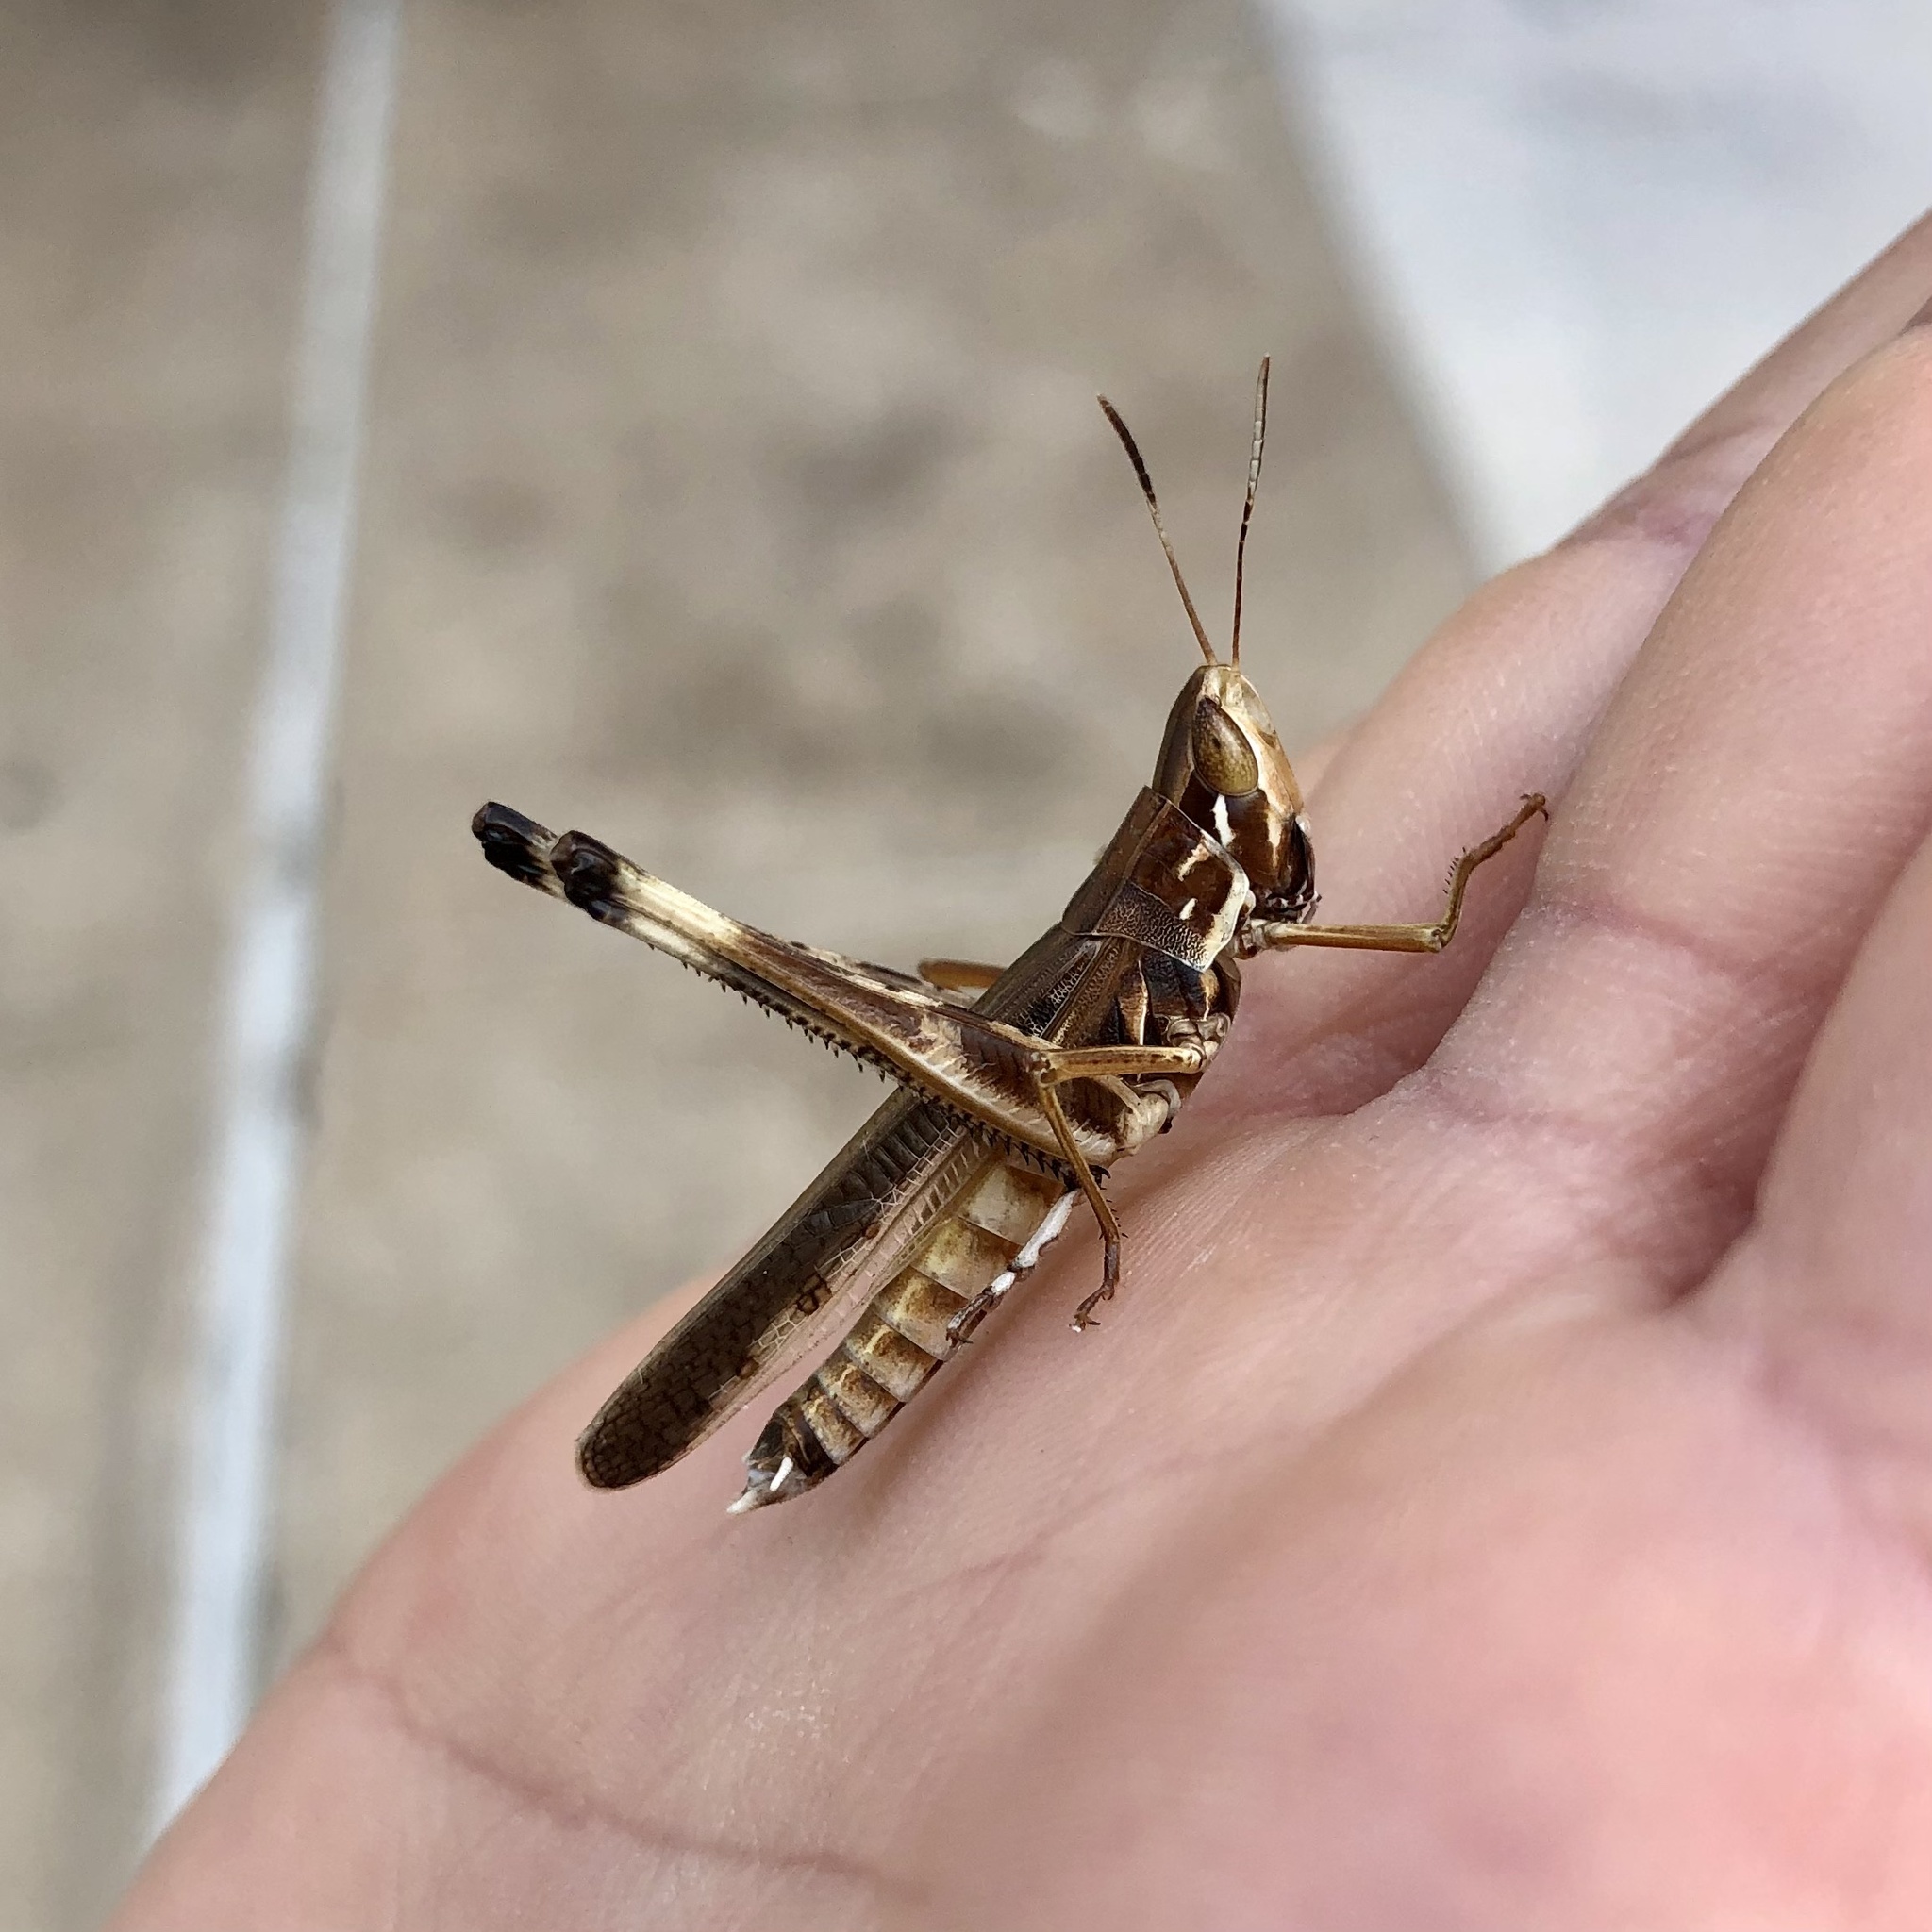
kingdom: Animalia
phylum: Arthropoda
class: Insecta
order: Orthoptera
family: Acrididae
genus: Syrbula
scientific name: Syrbula admirabilis
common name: Handsome grasshopper
